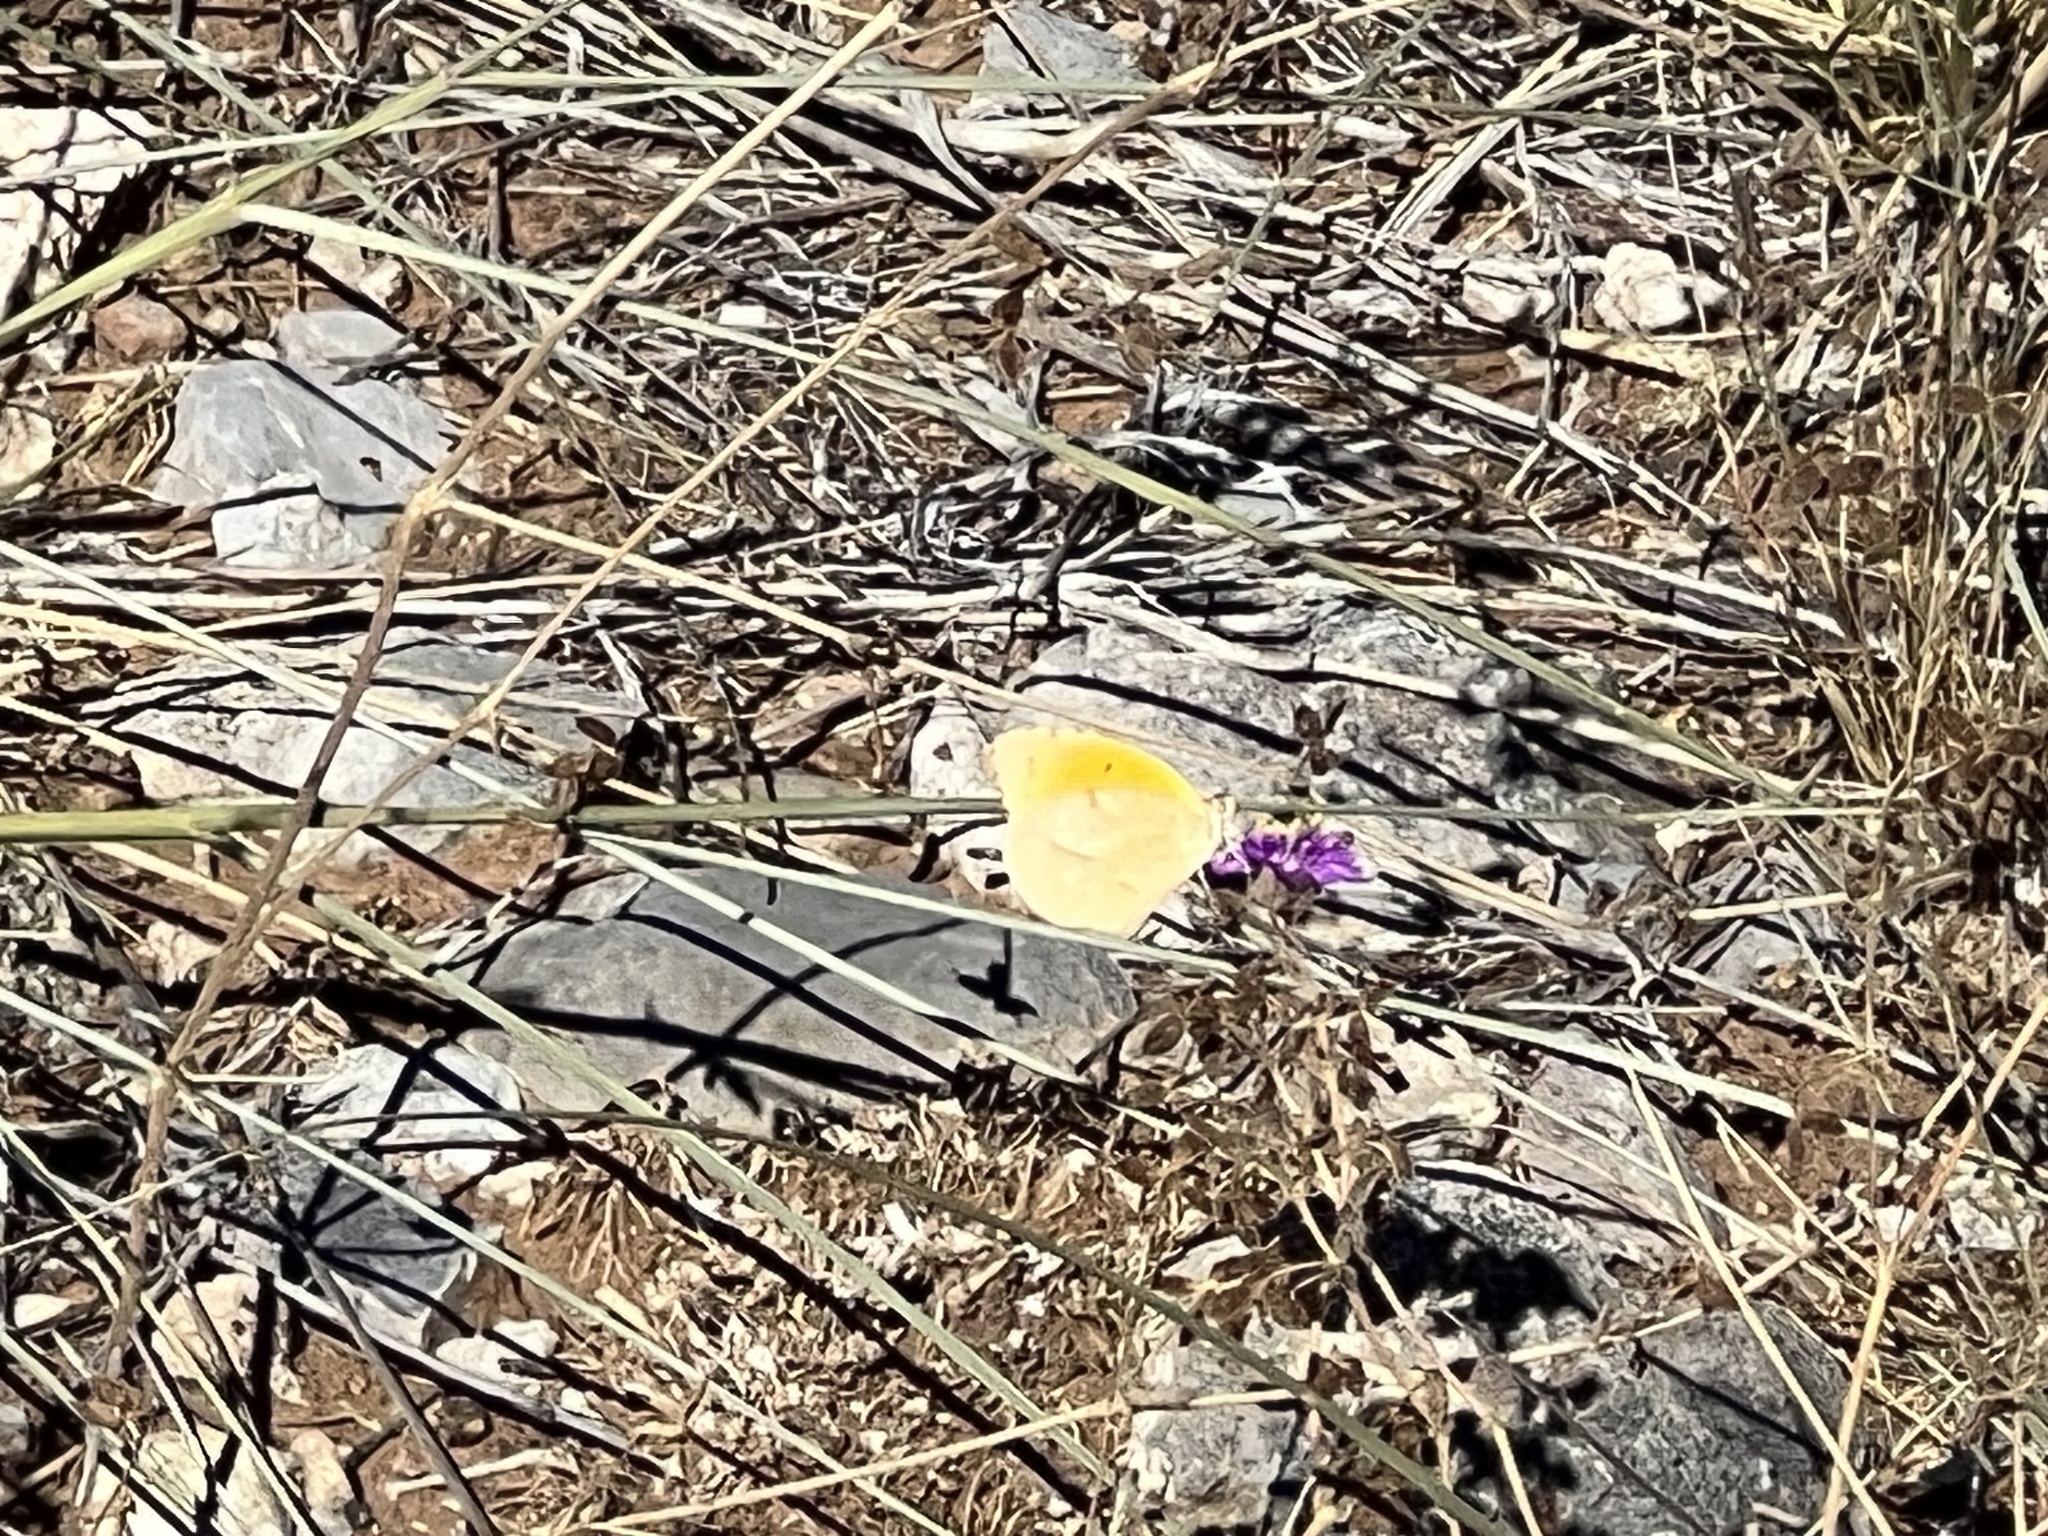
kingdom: Animalia
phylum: Arthropoda
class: Insecta
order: Lepidoptera
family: Pieridae
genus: Abaeis
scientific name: Abaeis nicippe
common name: Sleepy orange
